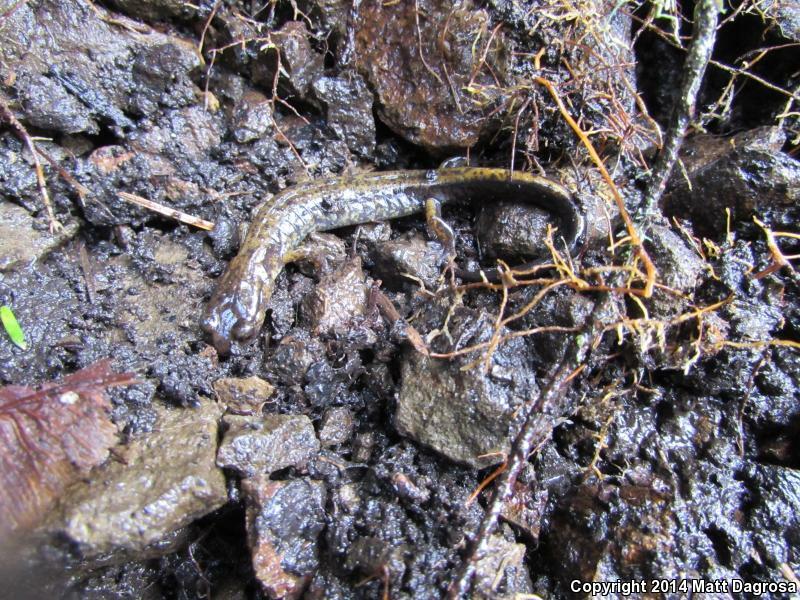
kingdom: Animalia
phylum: Chordata
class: Amphibia
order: Caudata
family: Plethodontidae
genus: Plethodon
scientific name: Plethodon dunni
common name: Dunn's salamander
